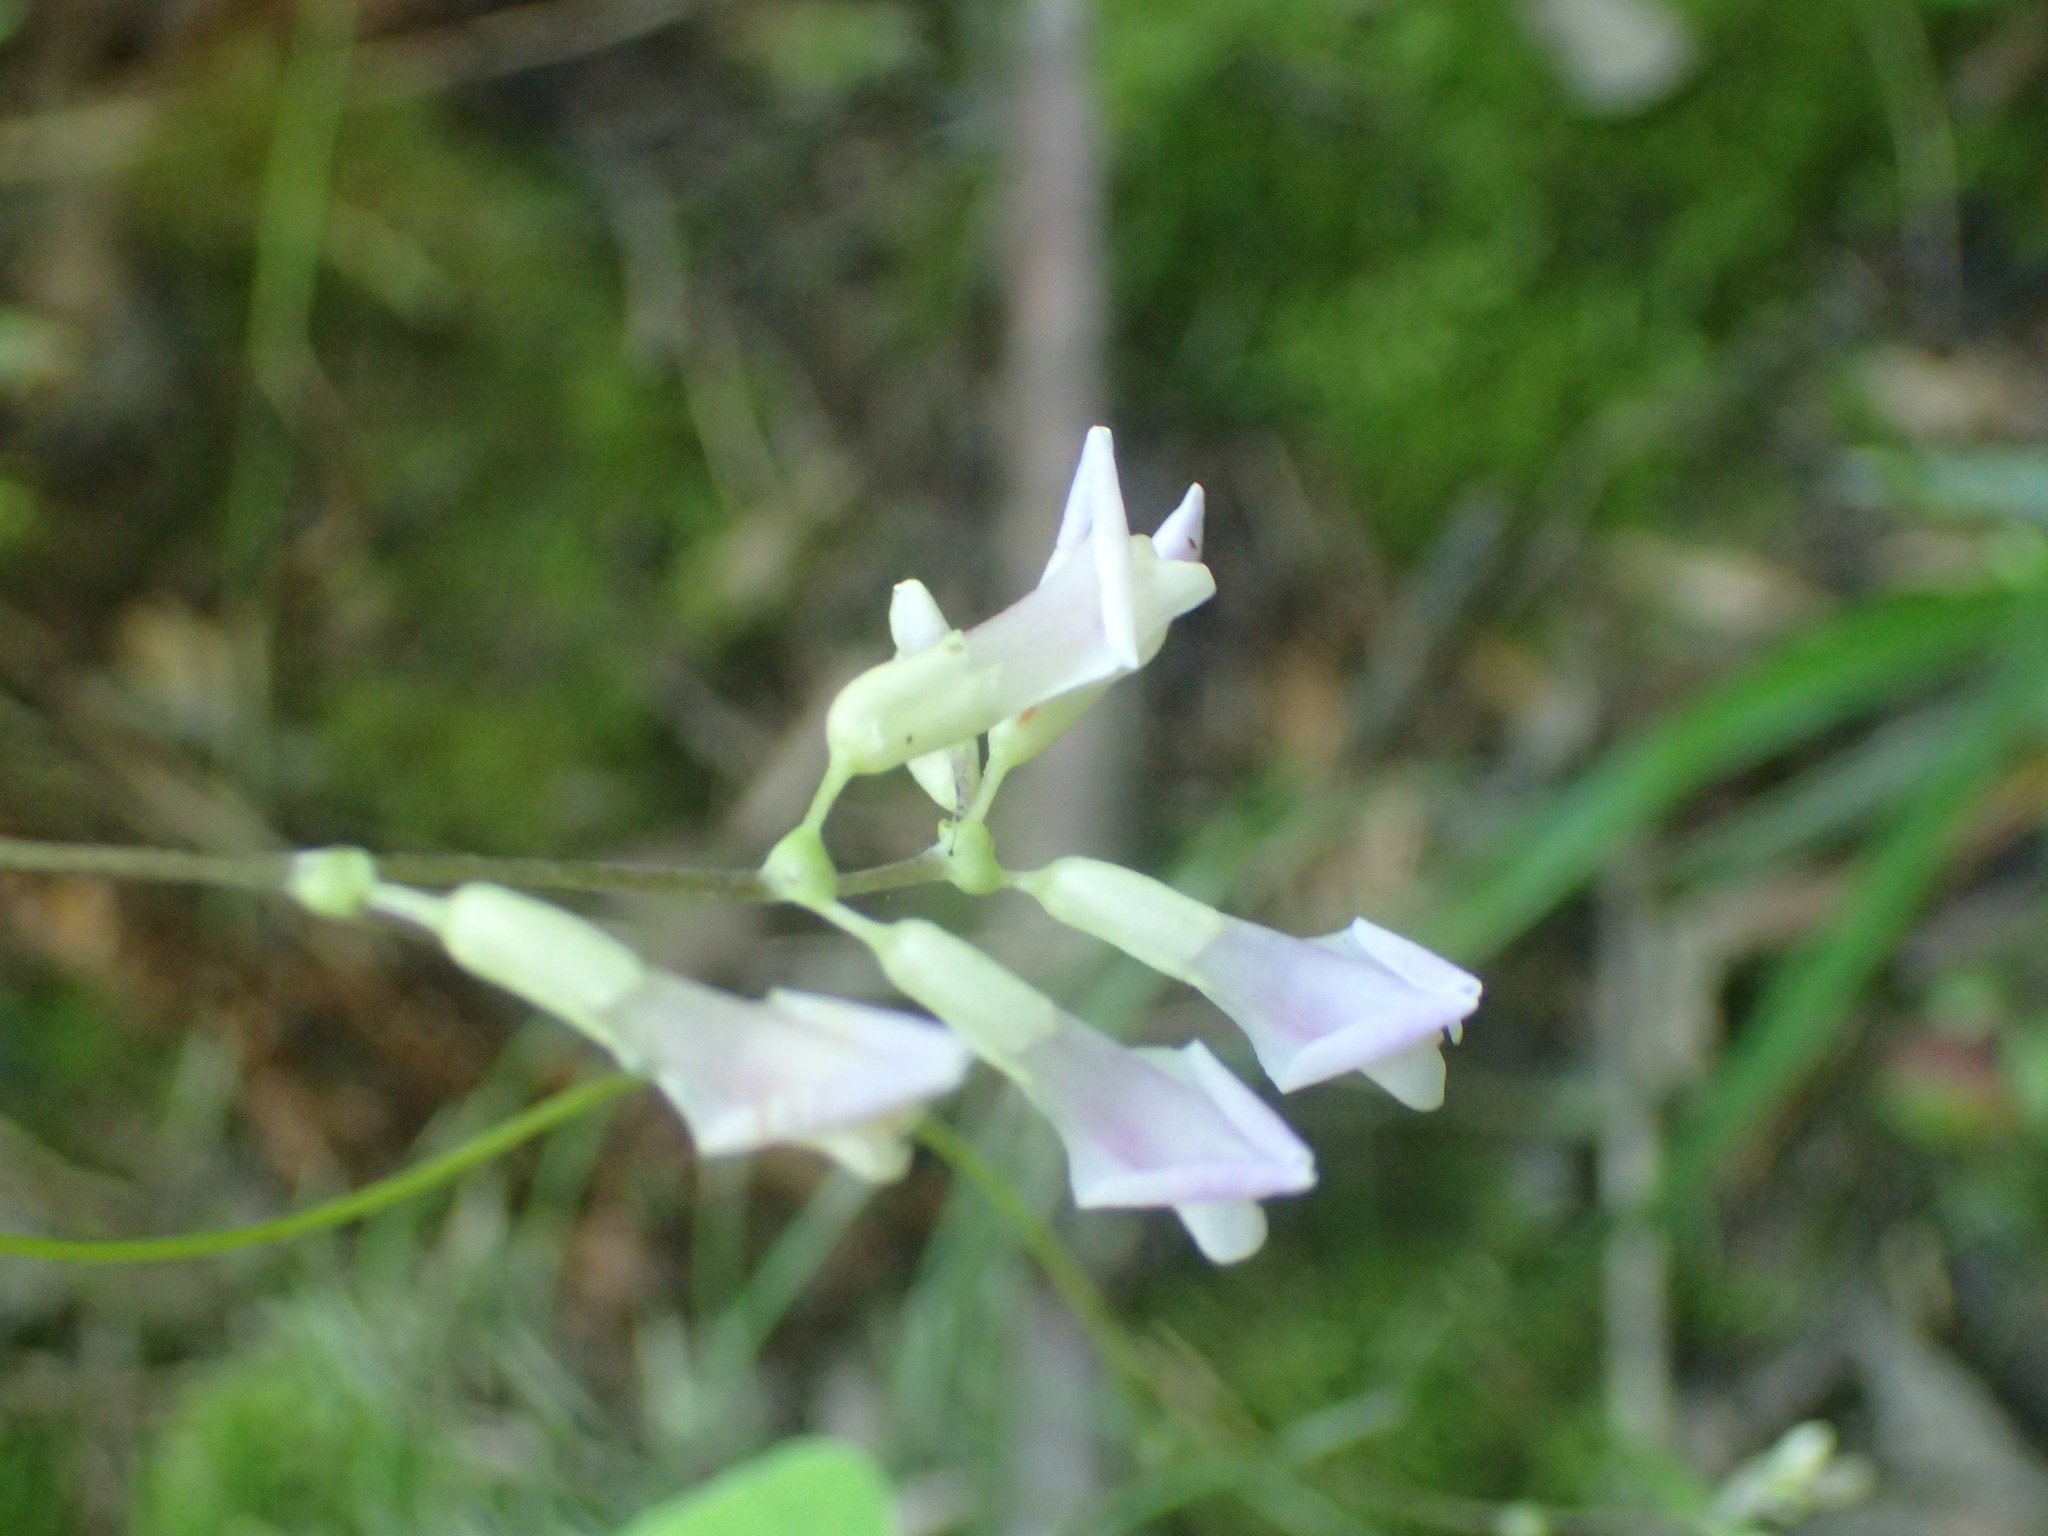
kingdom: Plantae
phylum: Tracheophyta
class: Magnoliopsida
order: Fabales
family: Fabaceae
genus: Amphicarpaea
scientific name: Amphicarpaea bracteata
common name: American hog peanut
